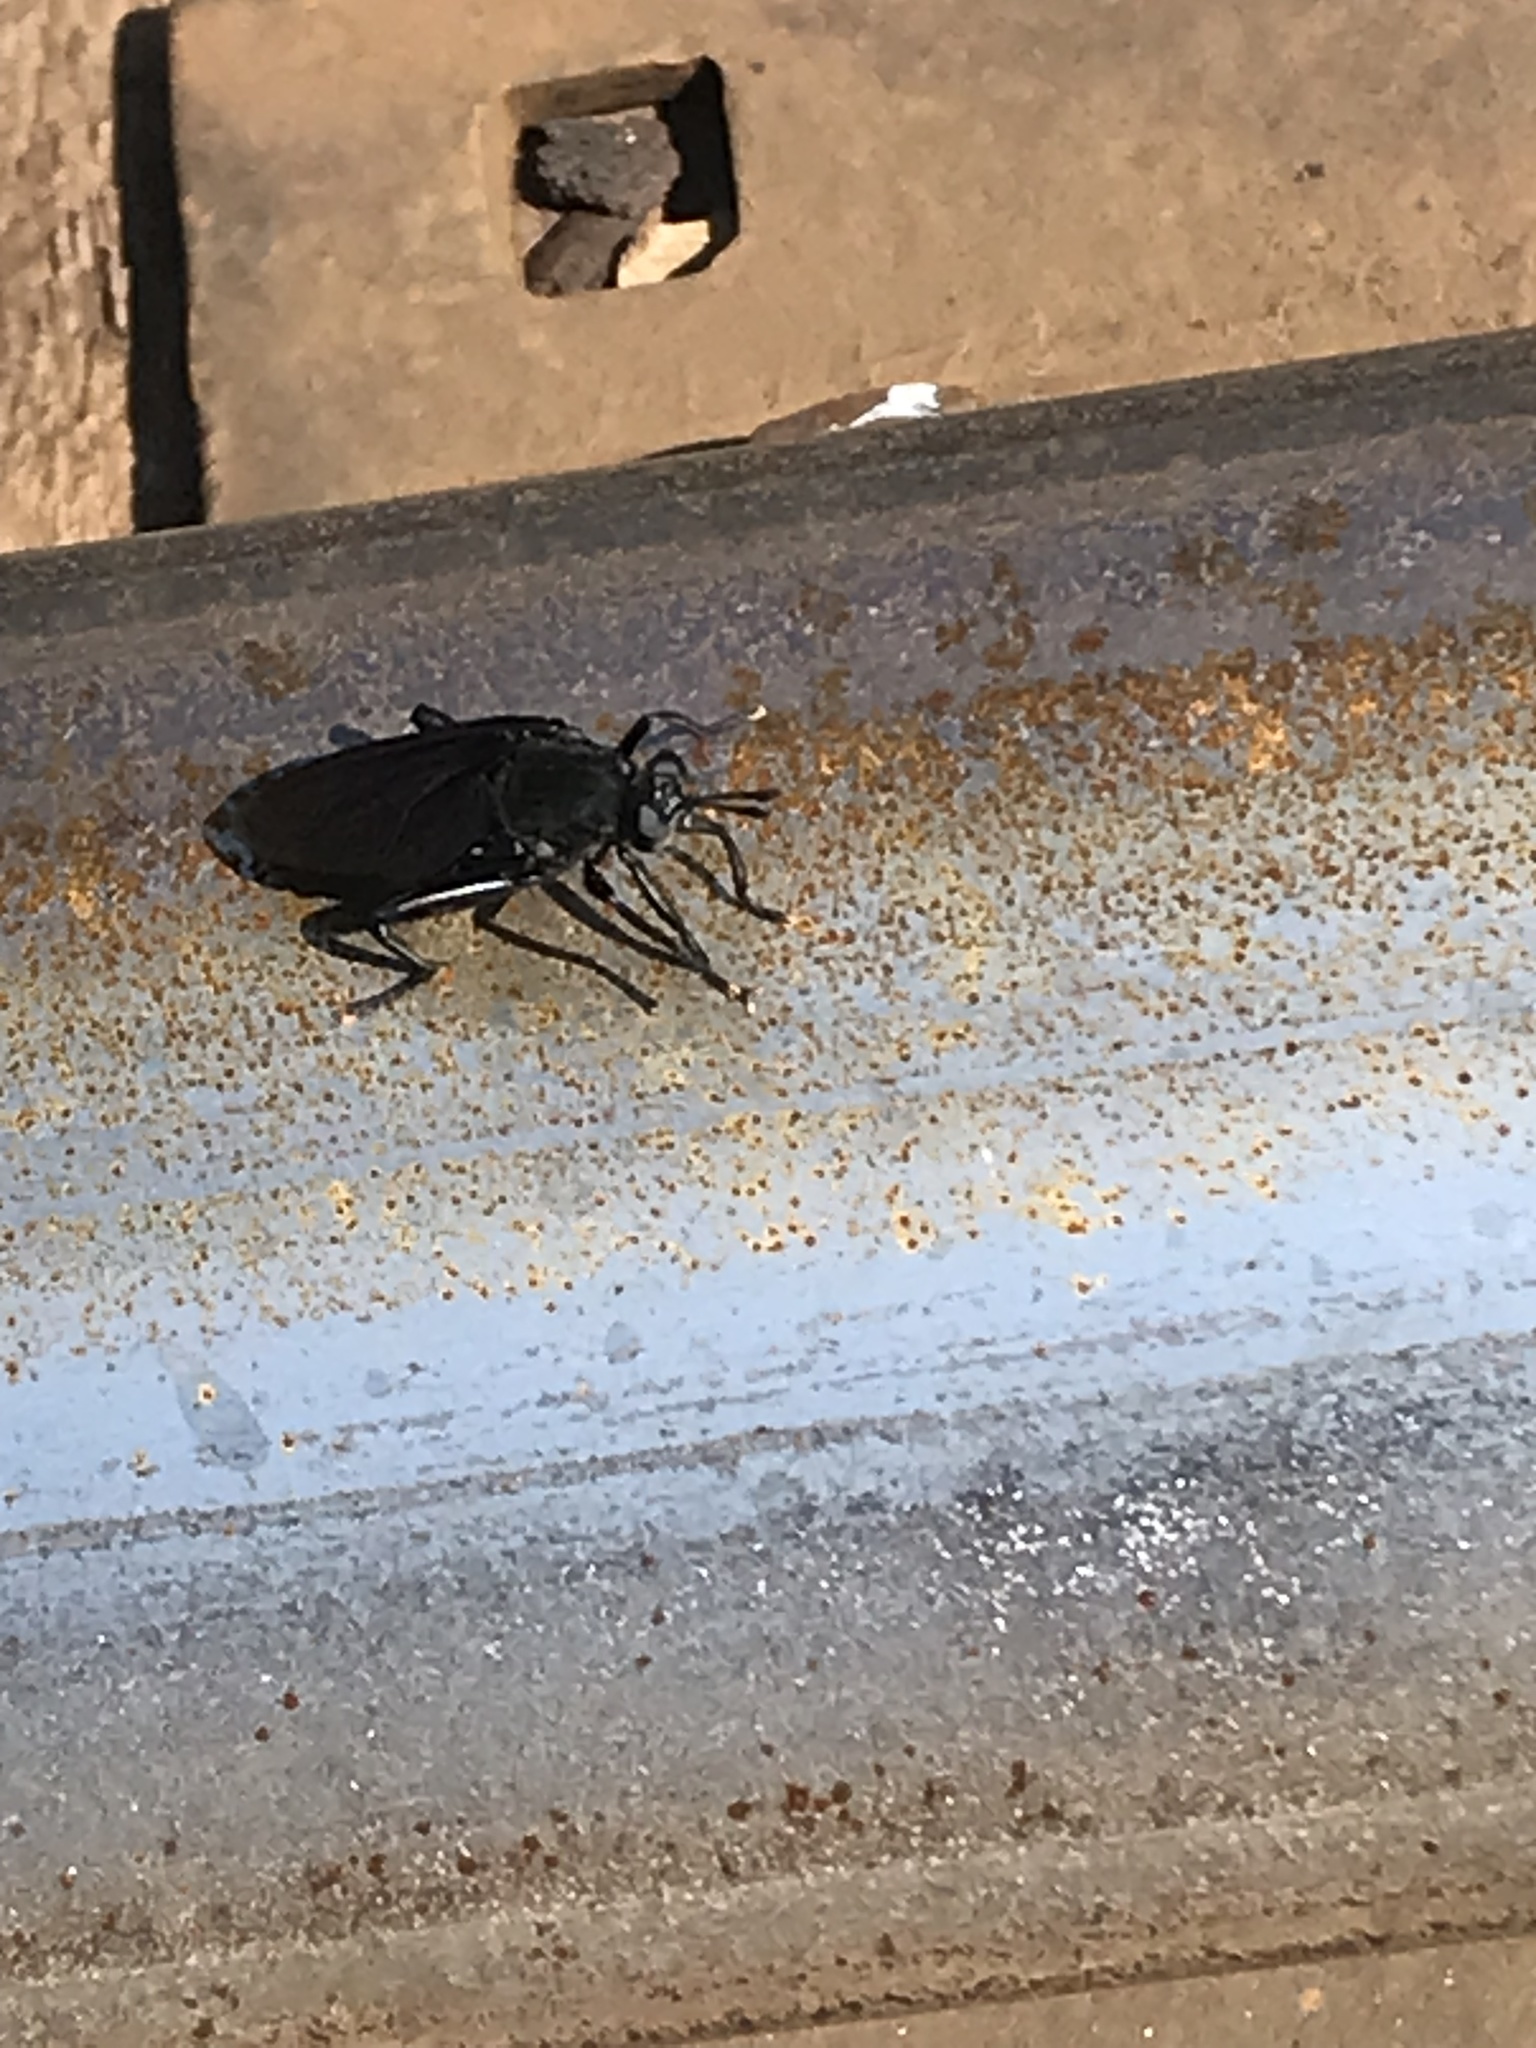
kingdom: Animalia
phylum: Arthropoda
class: Insecta
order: Diptera
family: Mydidae
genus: Mydas
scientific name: Mydas clavatus
